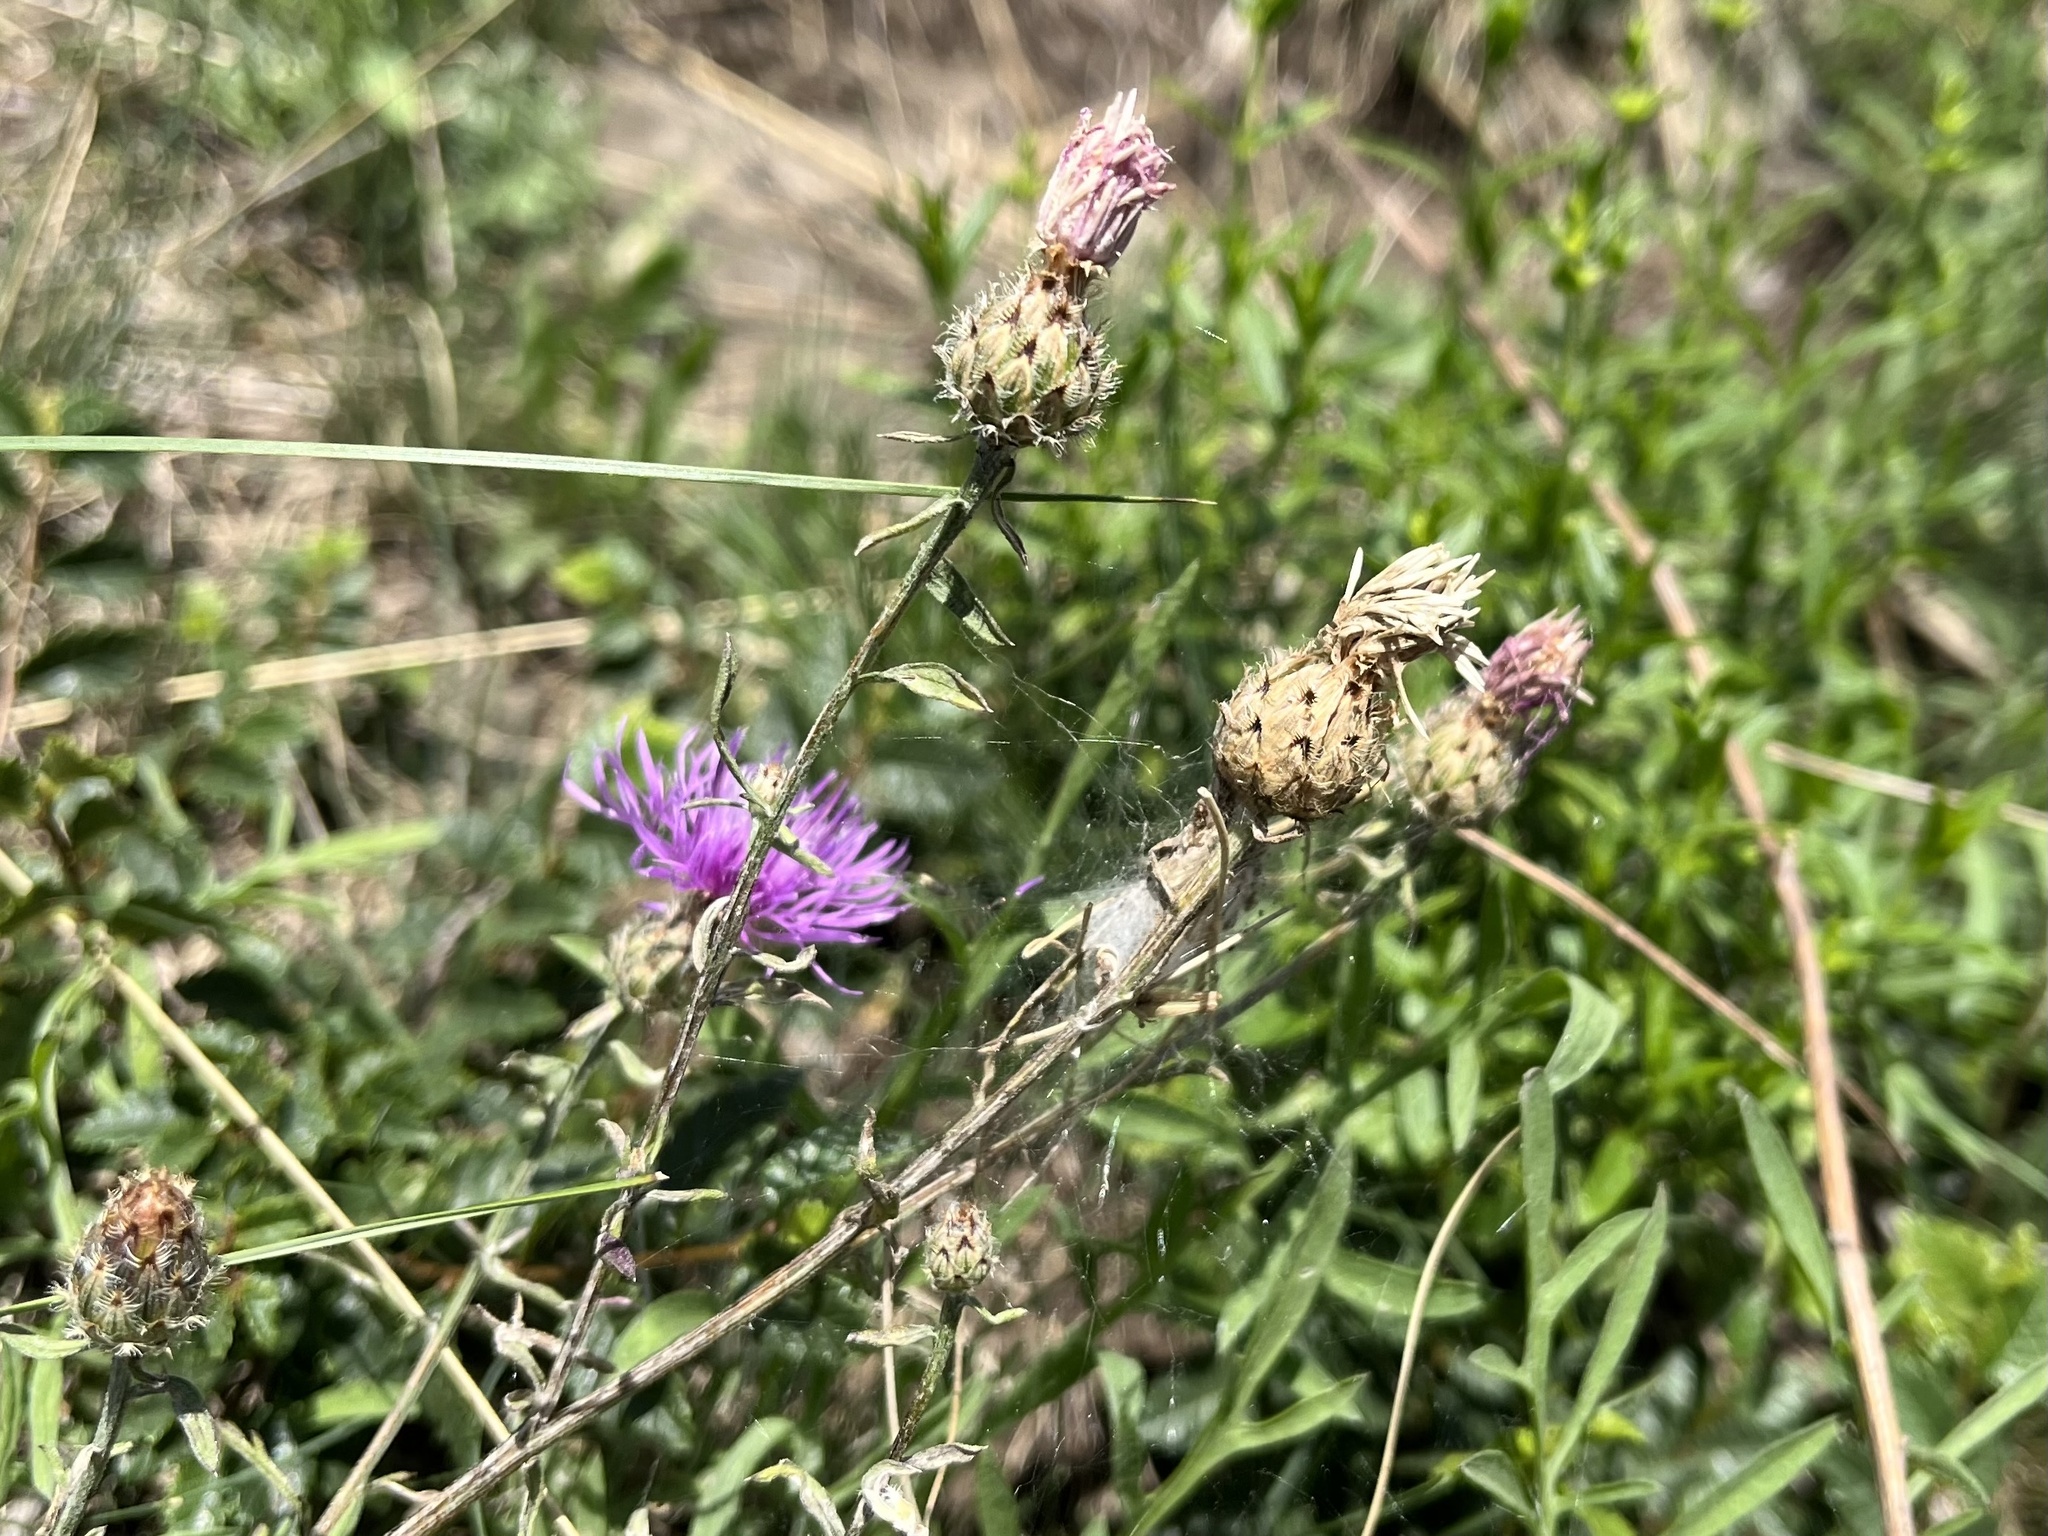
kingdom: Plantae
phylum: Tracheophyta
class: Magnoliopsida
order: Asterales
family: Asteraceae
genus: Centaurea
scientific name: Centaurea stoebe
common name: Spotted knapweed
